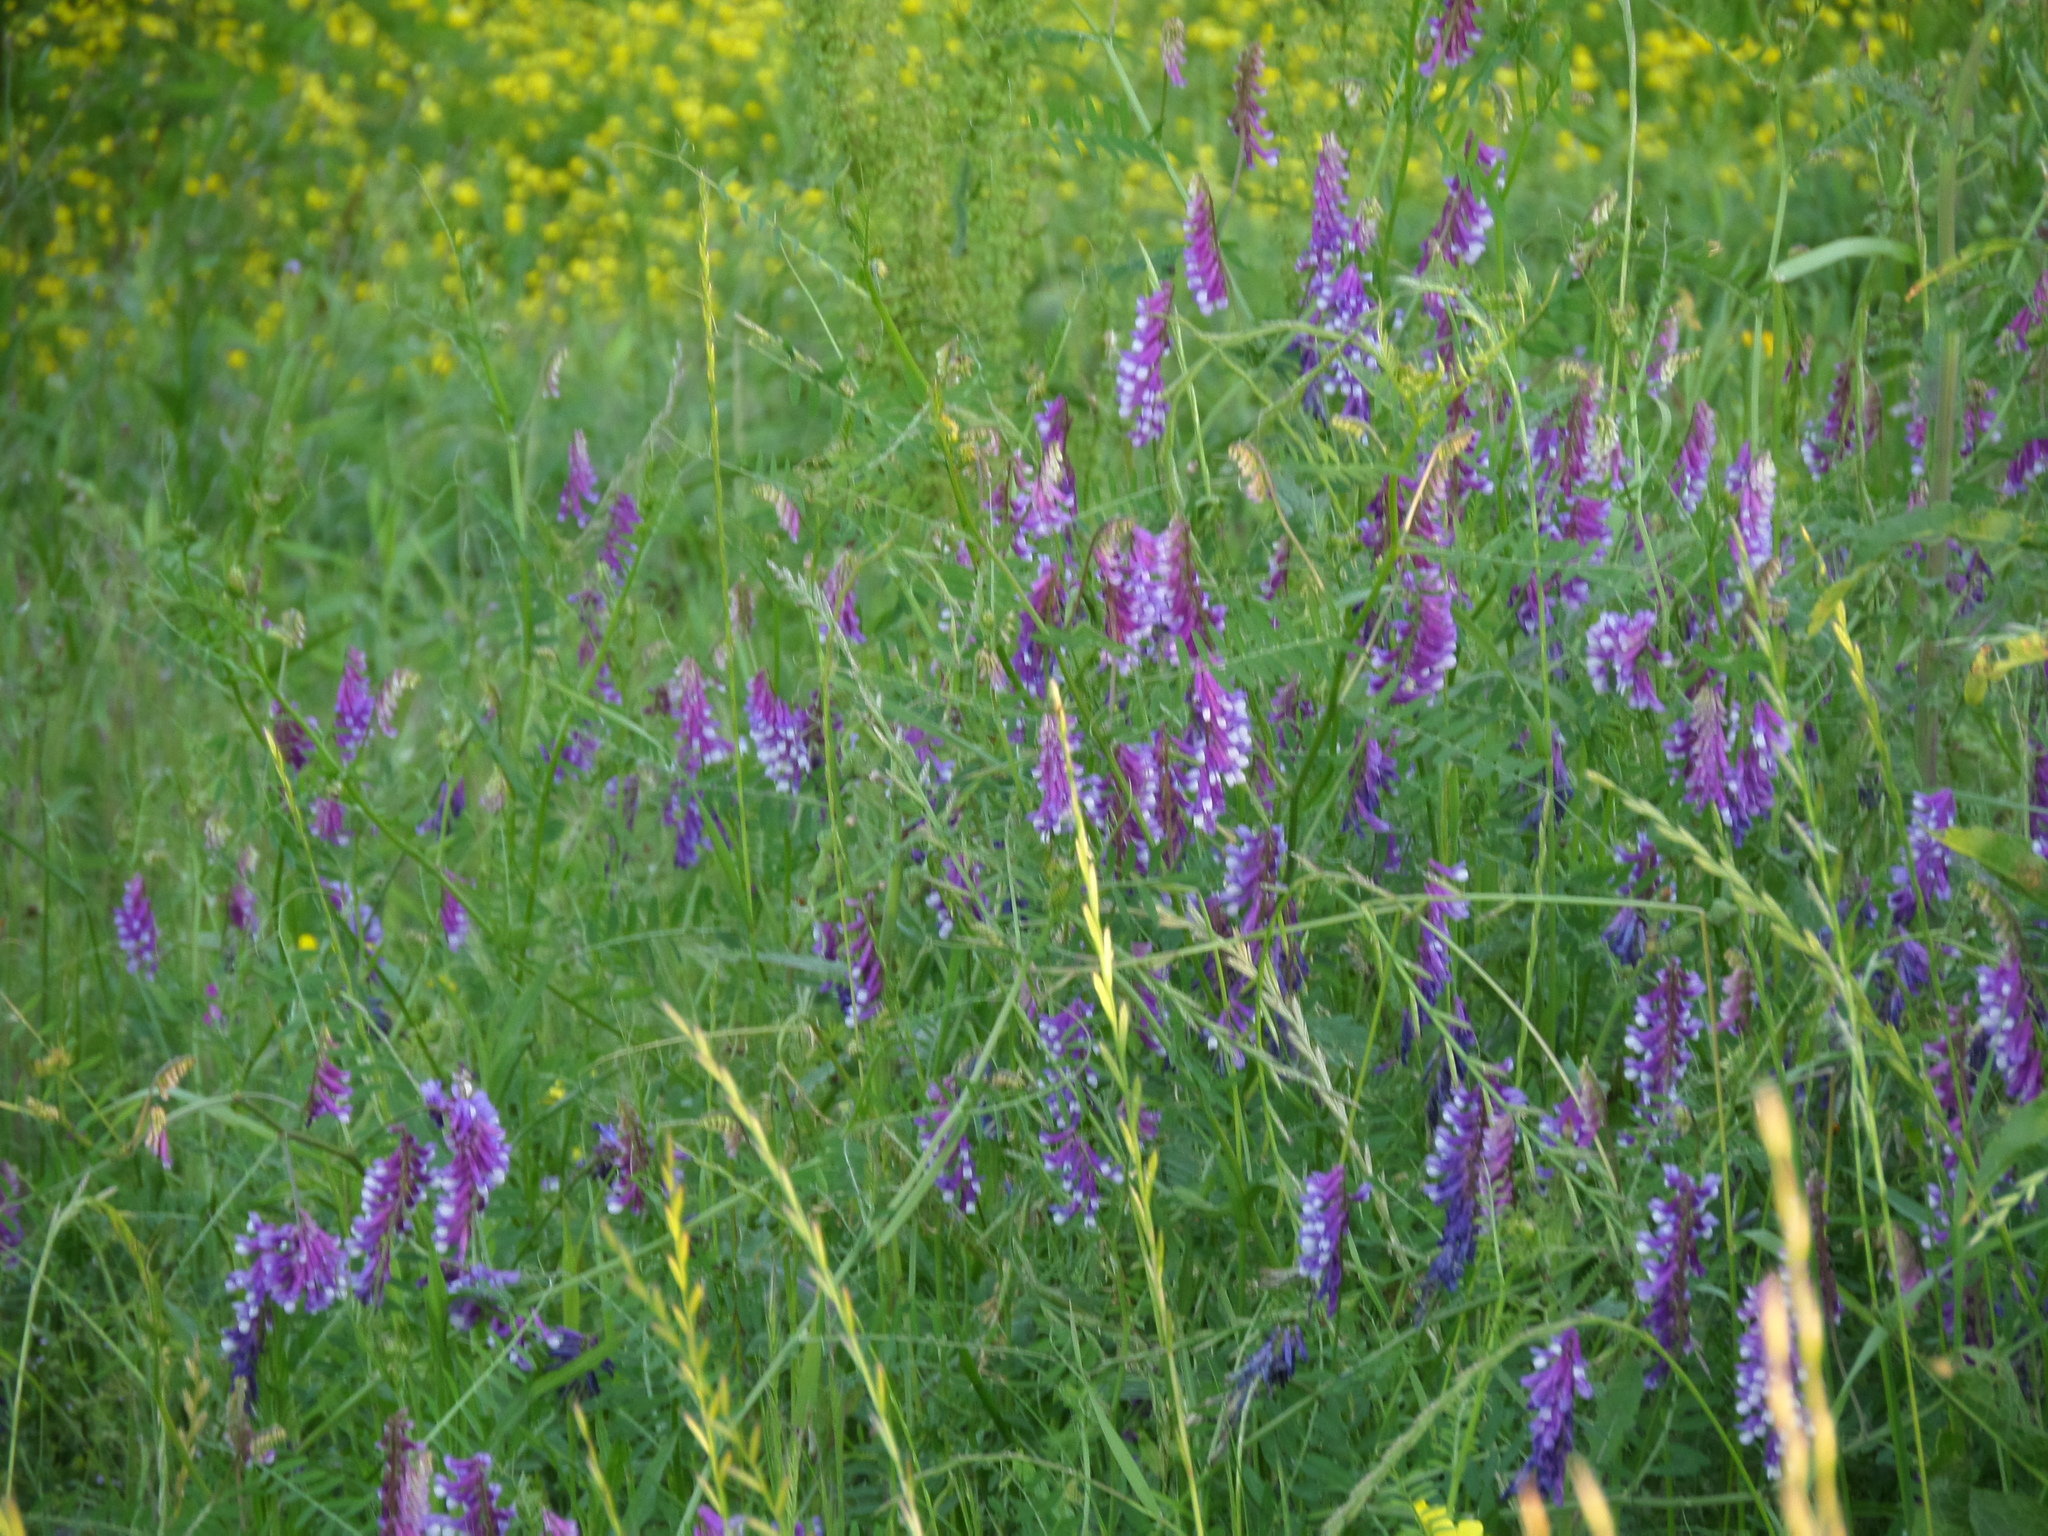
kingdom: Plantae
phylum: Tracheophyta
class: Magnoliopsida
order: Fabales
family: Fabaceae
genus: Vicia
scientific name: Vicia villosa
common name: Fodder vetch
